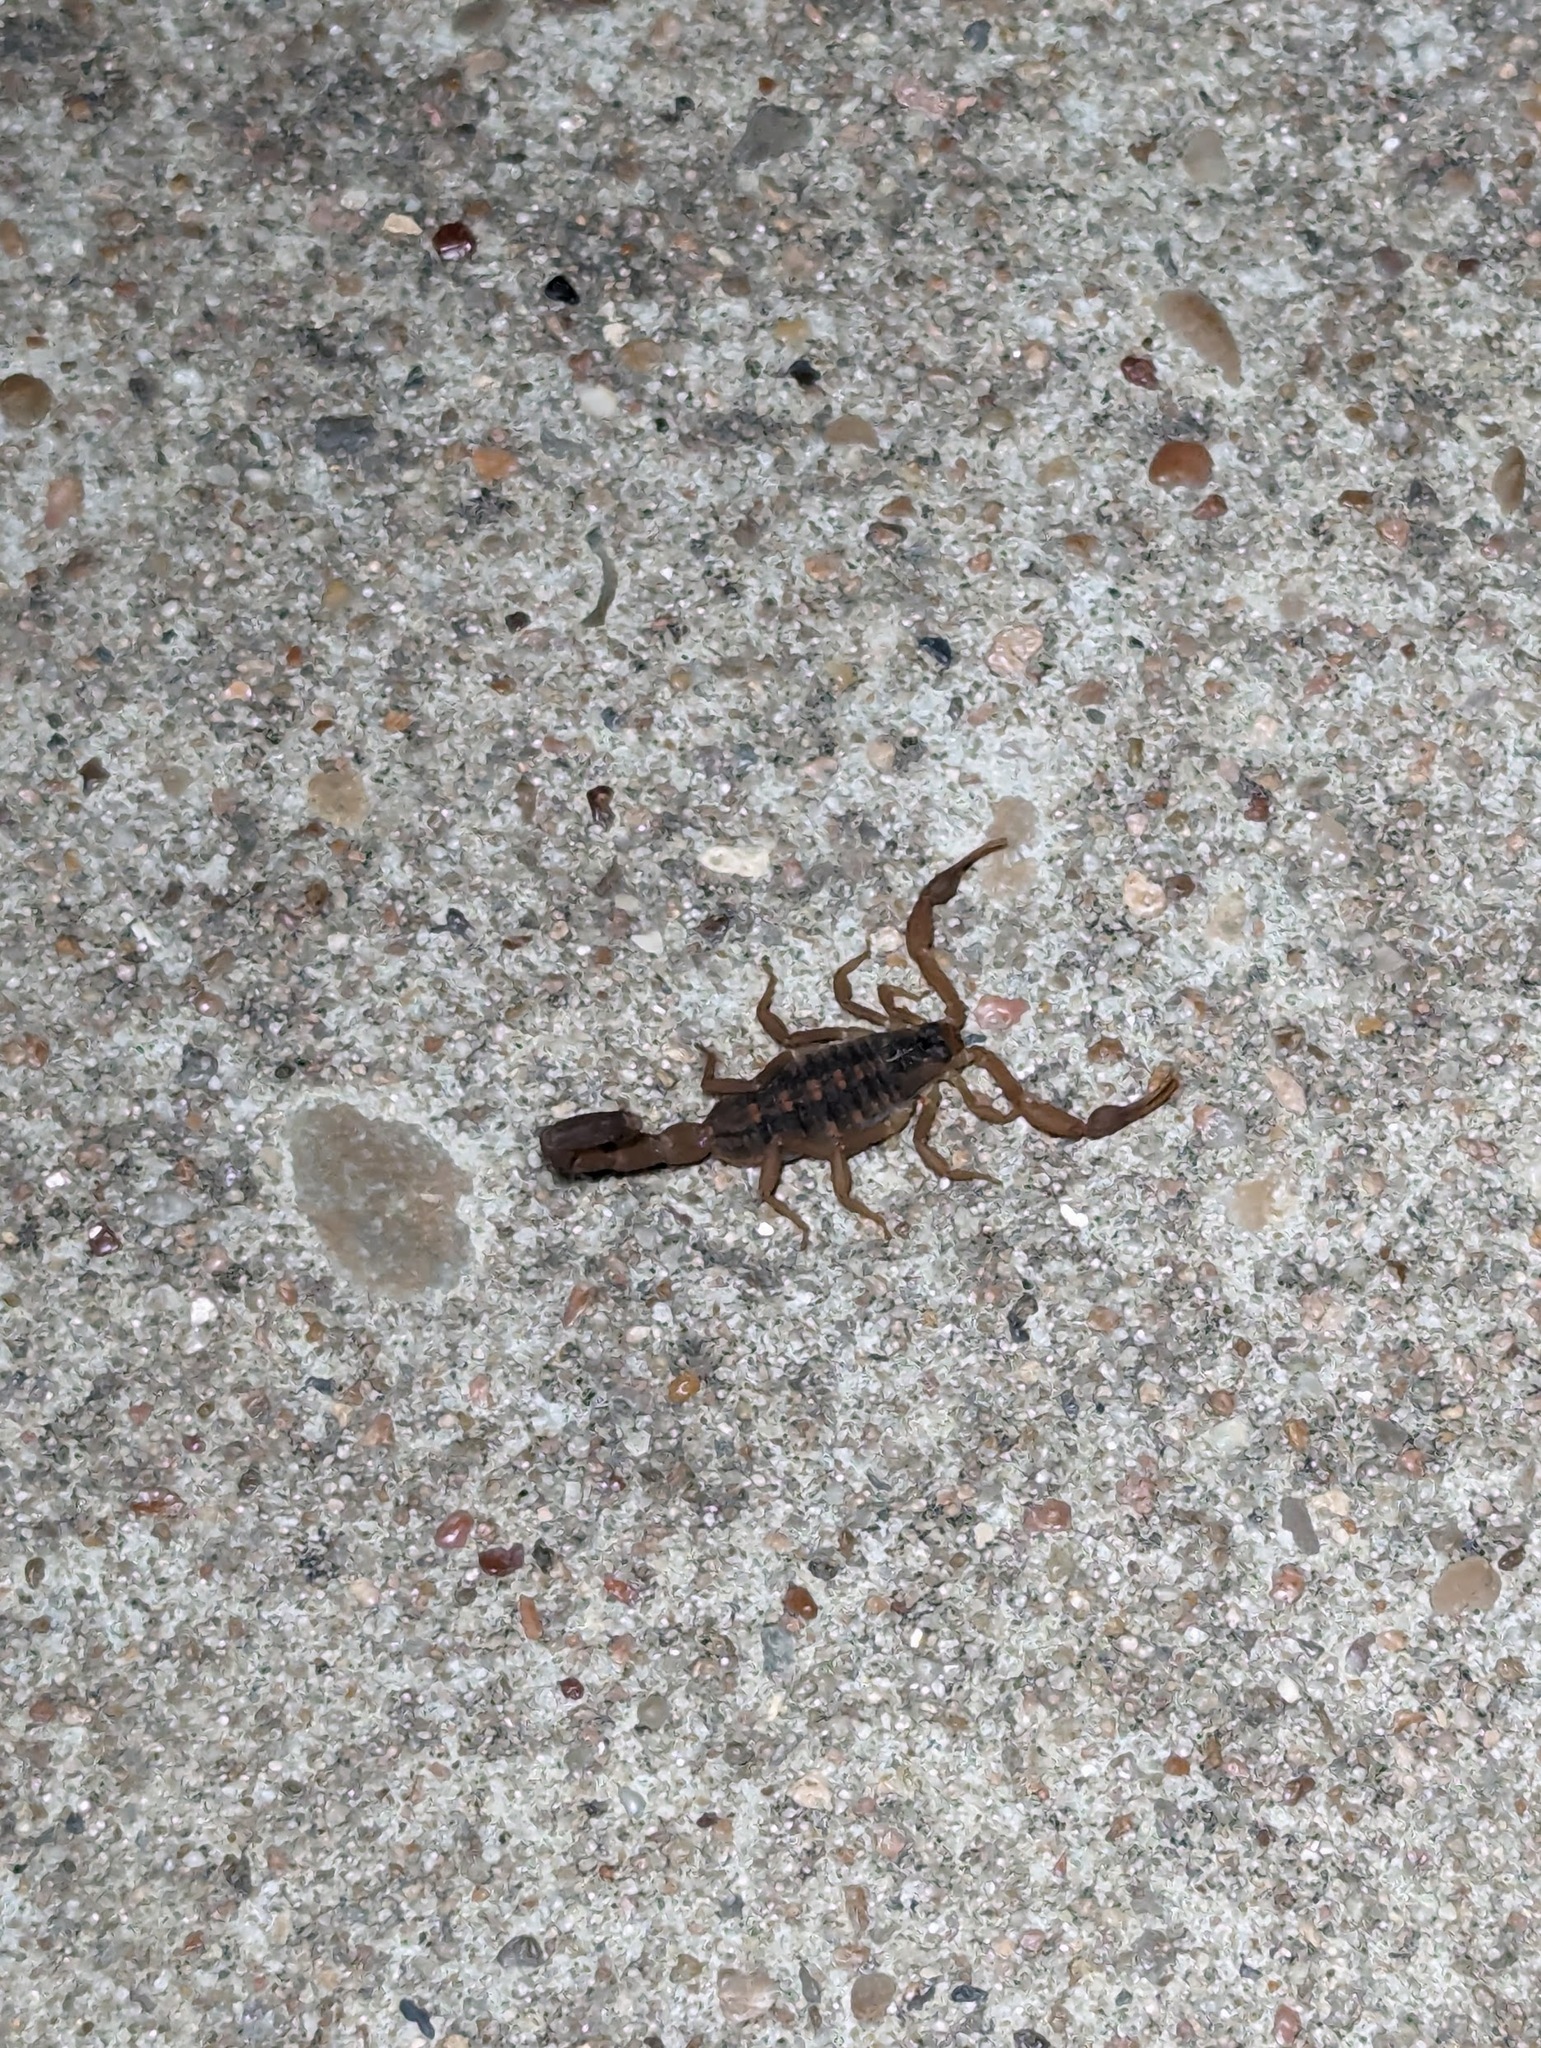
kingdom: Animalia
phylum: Arthropoda
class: Arachnida
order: Scorpiones
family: Buthidae
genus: Centruroides
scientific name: Centruroides vittatus
